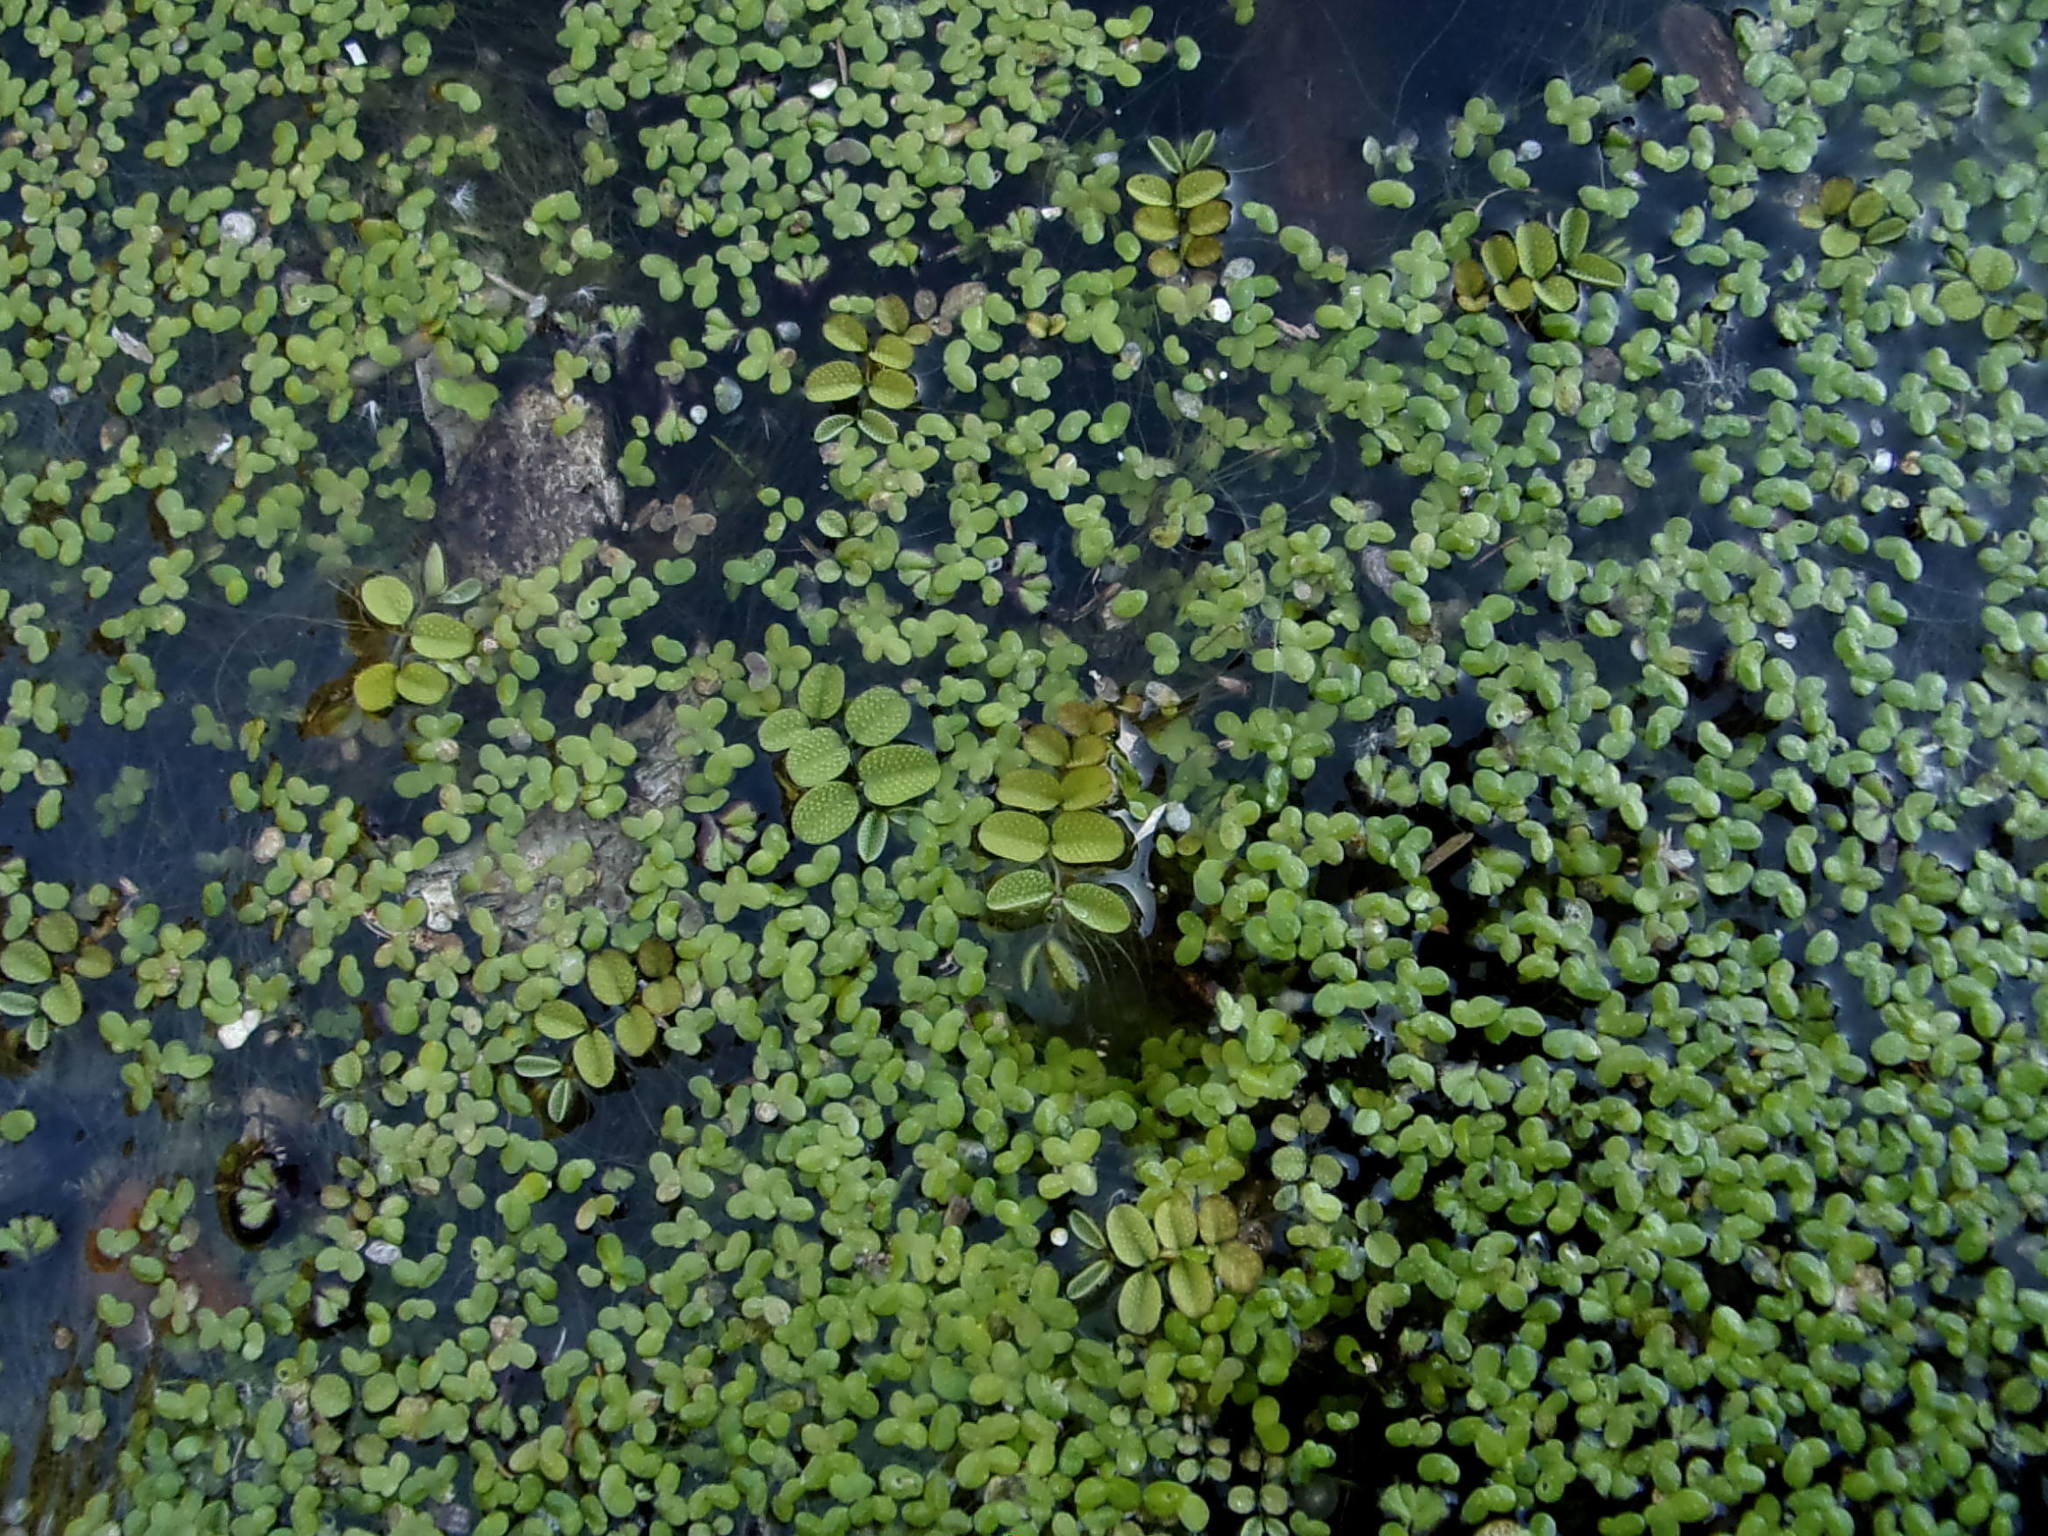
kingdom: Plantae
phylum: Tracheophyta
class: Polypodiopsida
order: Salviniales
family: Salviniaceae
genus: Salvinia
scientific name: Salvinia natans
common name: Floating fern
